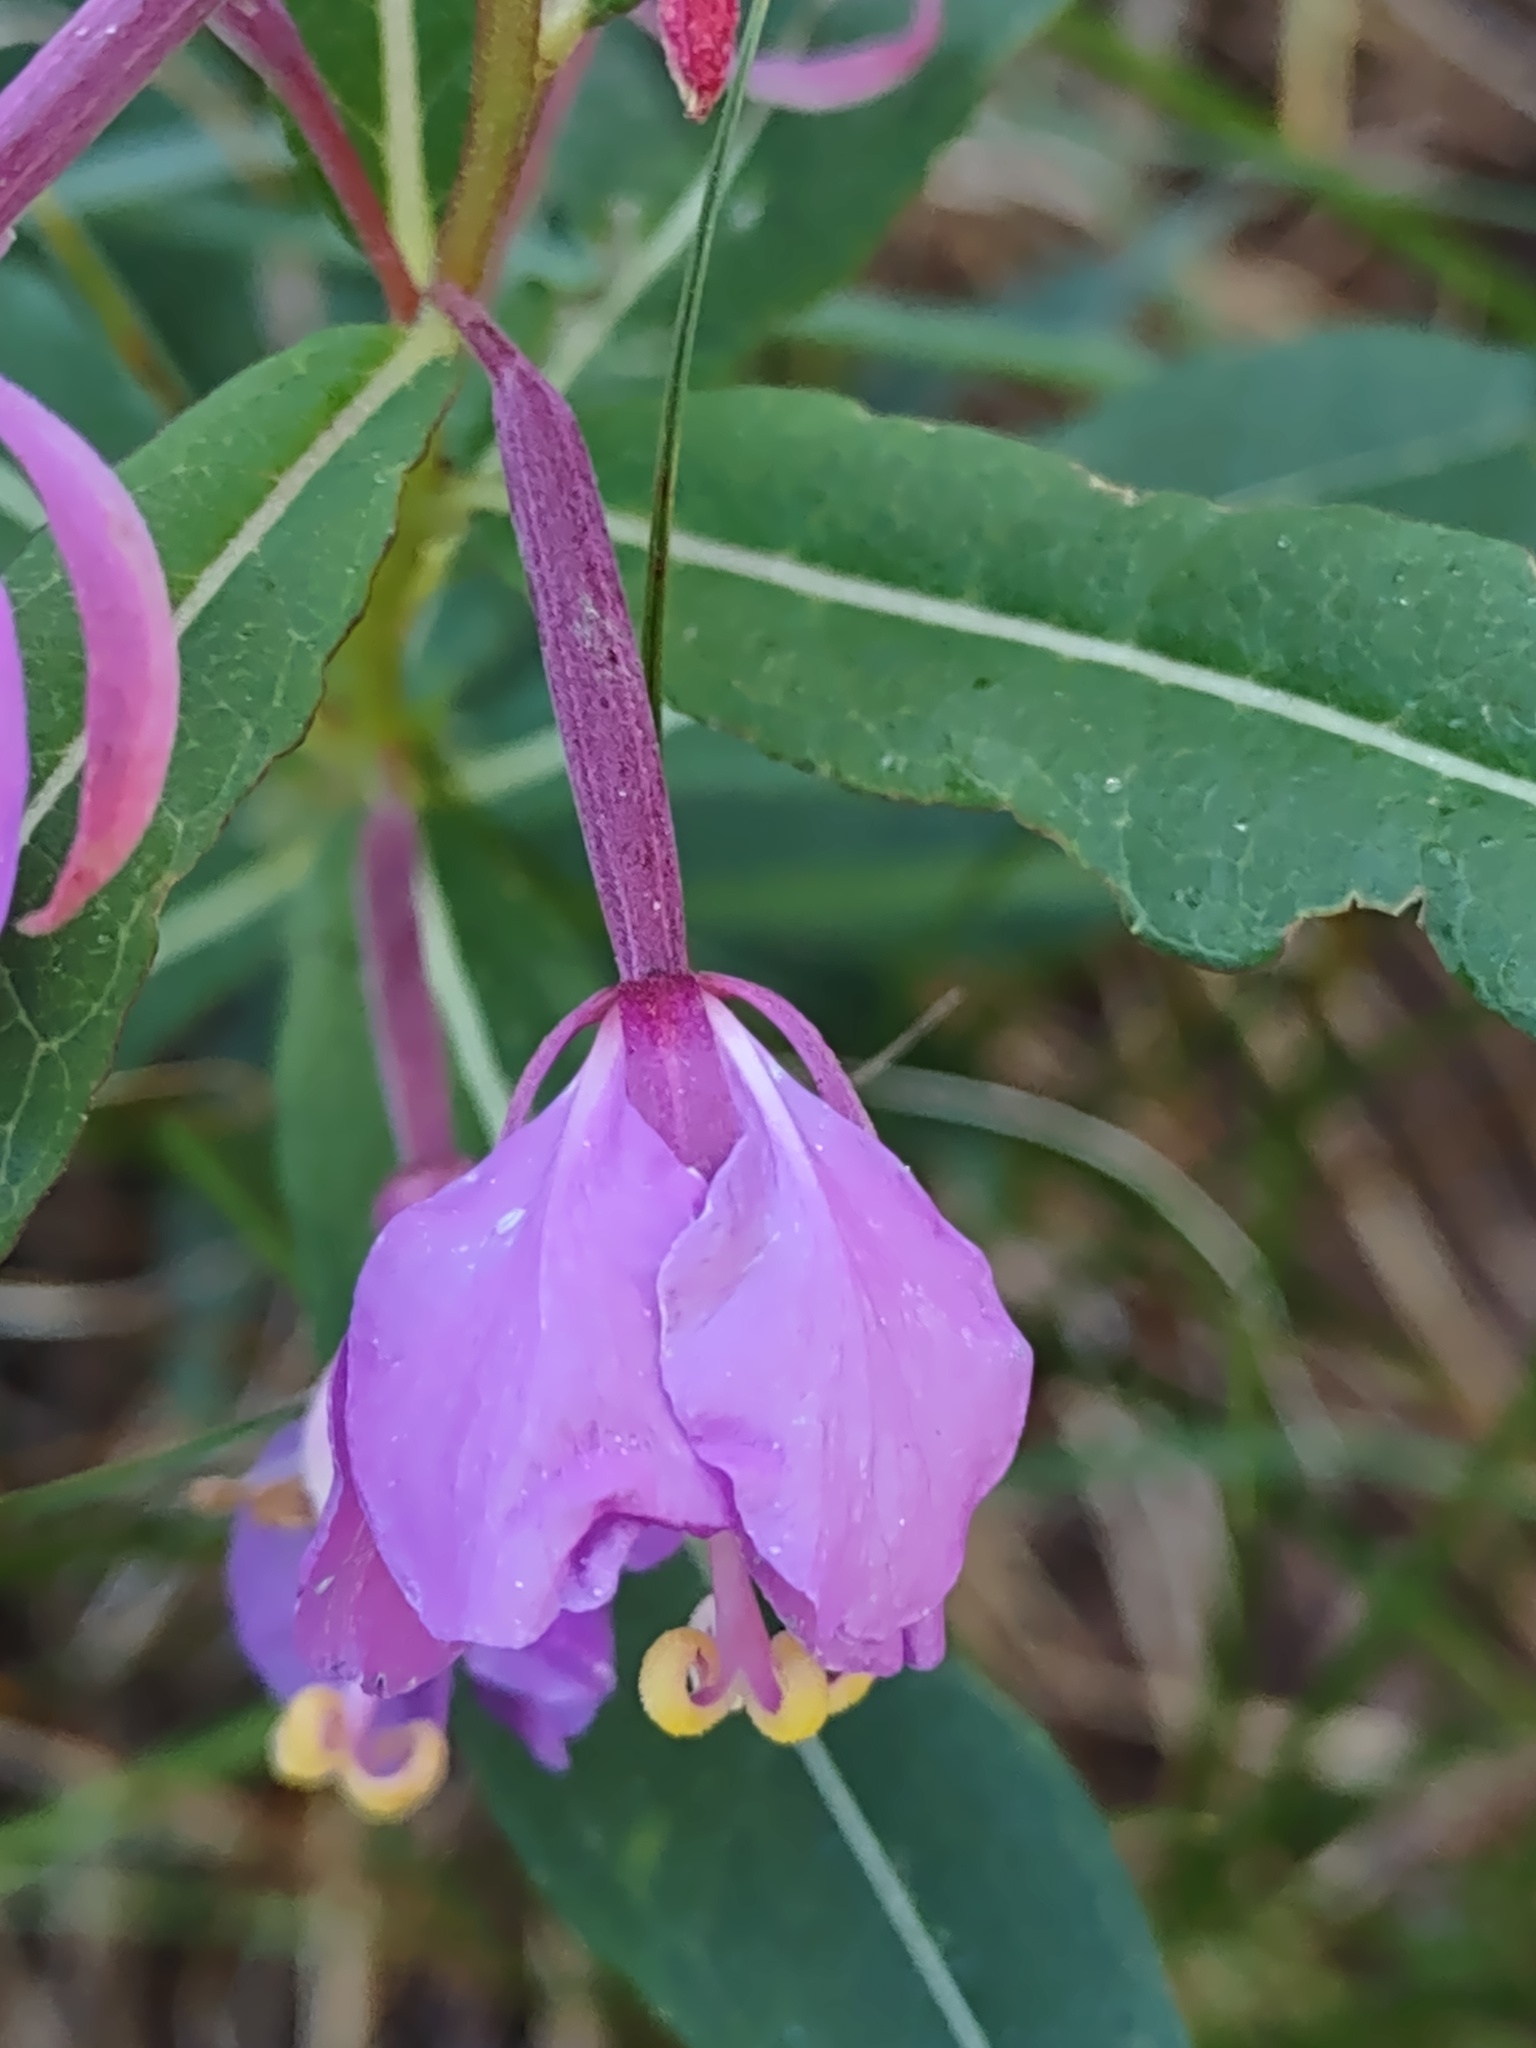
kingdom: Plantae
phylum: Tracheophyta
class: Magnoliopsida
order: Myrtales
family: Onagraceae
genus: Chamaenerion
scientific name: Chamaenerion angustifolium
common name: Fireweed
